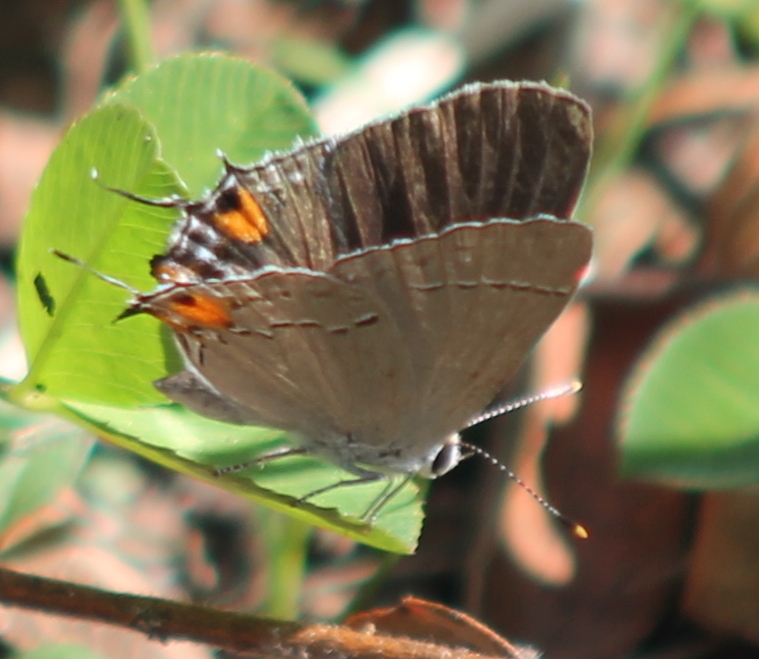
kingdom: Animalia
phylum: Arthropoda
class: Insecta
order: Lepidoptera
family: Lycaenidae
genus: Strymon
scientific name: Strymon melinus
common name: Gray hairstreak
